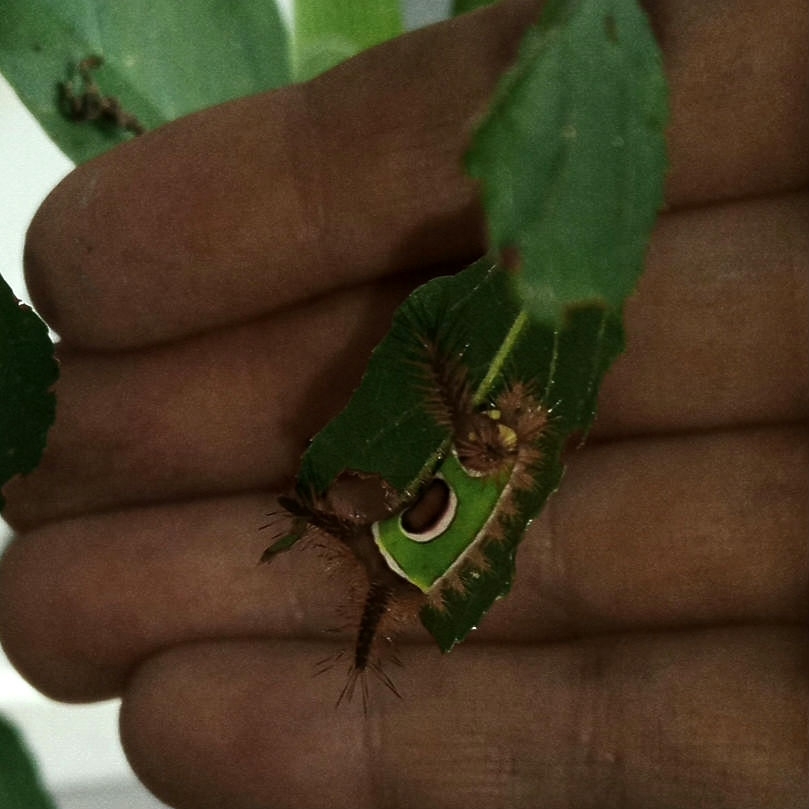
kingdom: Animalia
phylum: Arthropoda
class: Insecta
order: Lepidoptera
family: Limacodidae
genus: Acharia
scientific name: Acharia stimulea
